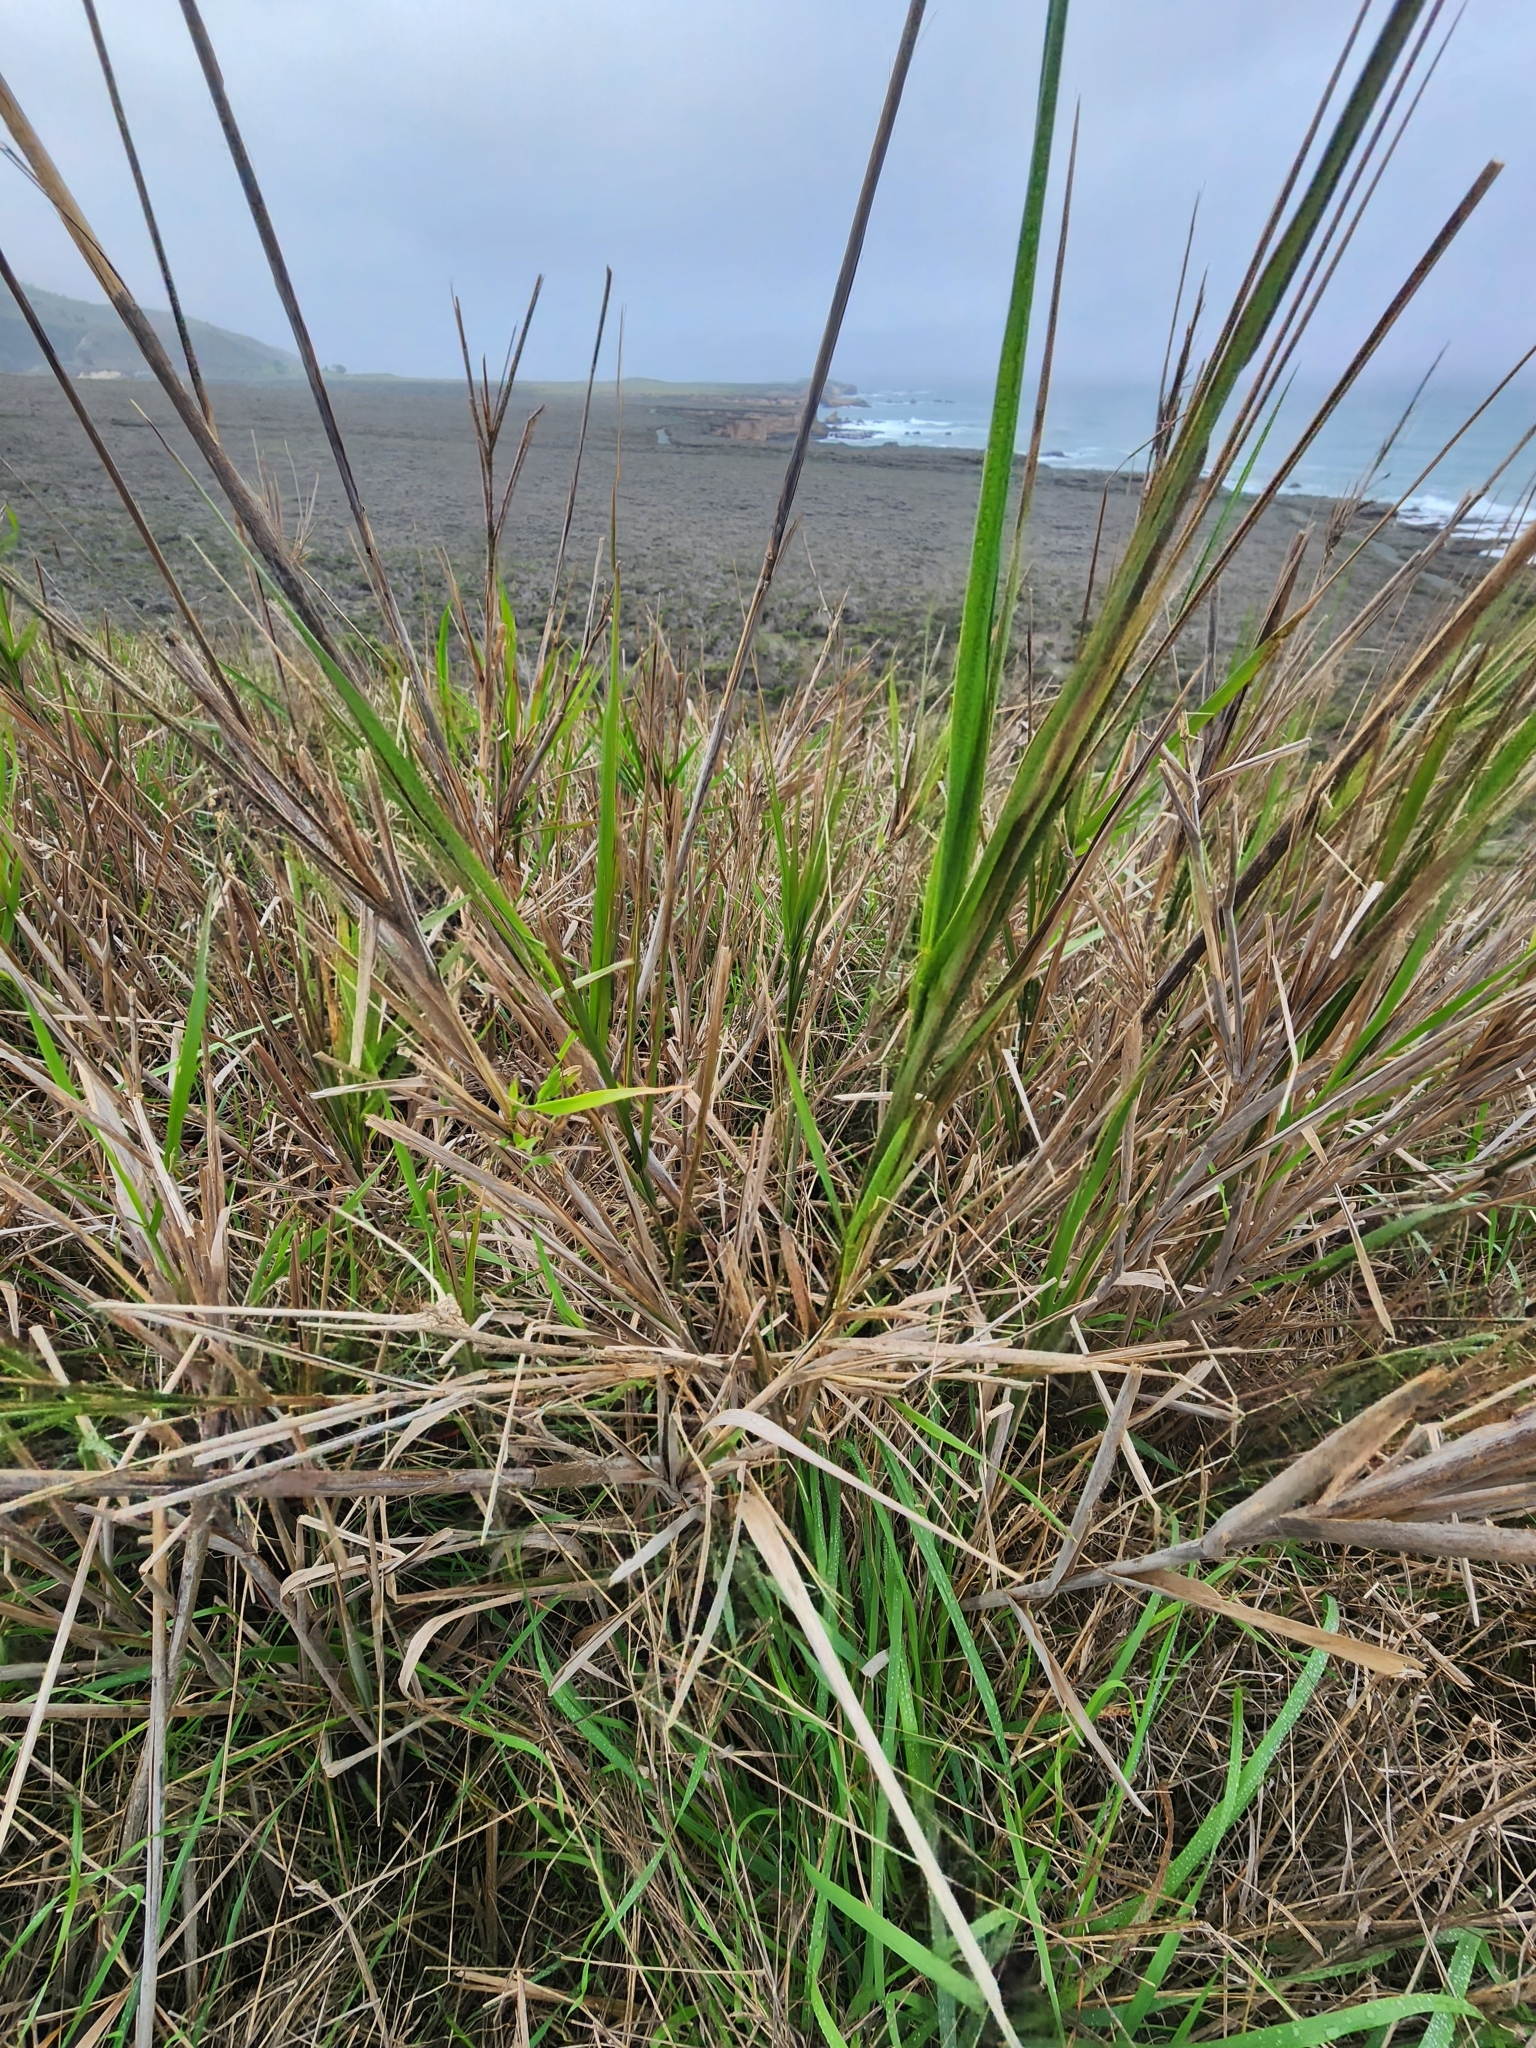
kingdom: Plantae
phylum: Tracheophyta
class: Liliopsida
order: Poales
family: Poaceae
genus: Leymus
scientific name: Leymus condensatus
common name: Giant wild rye
